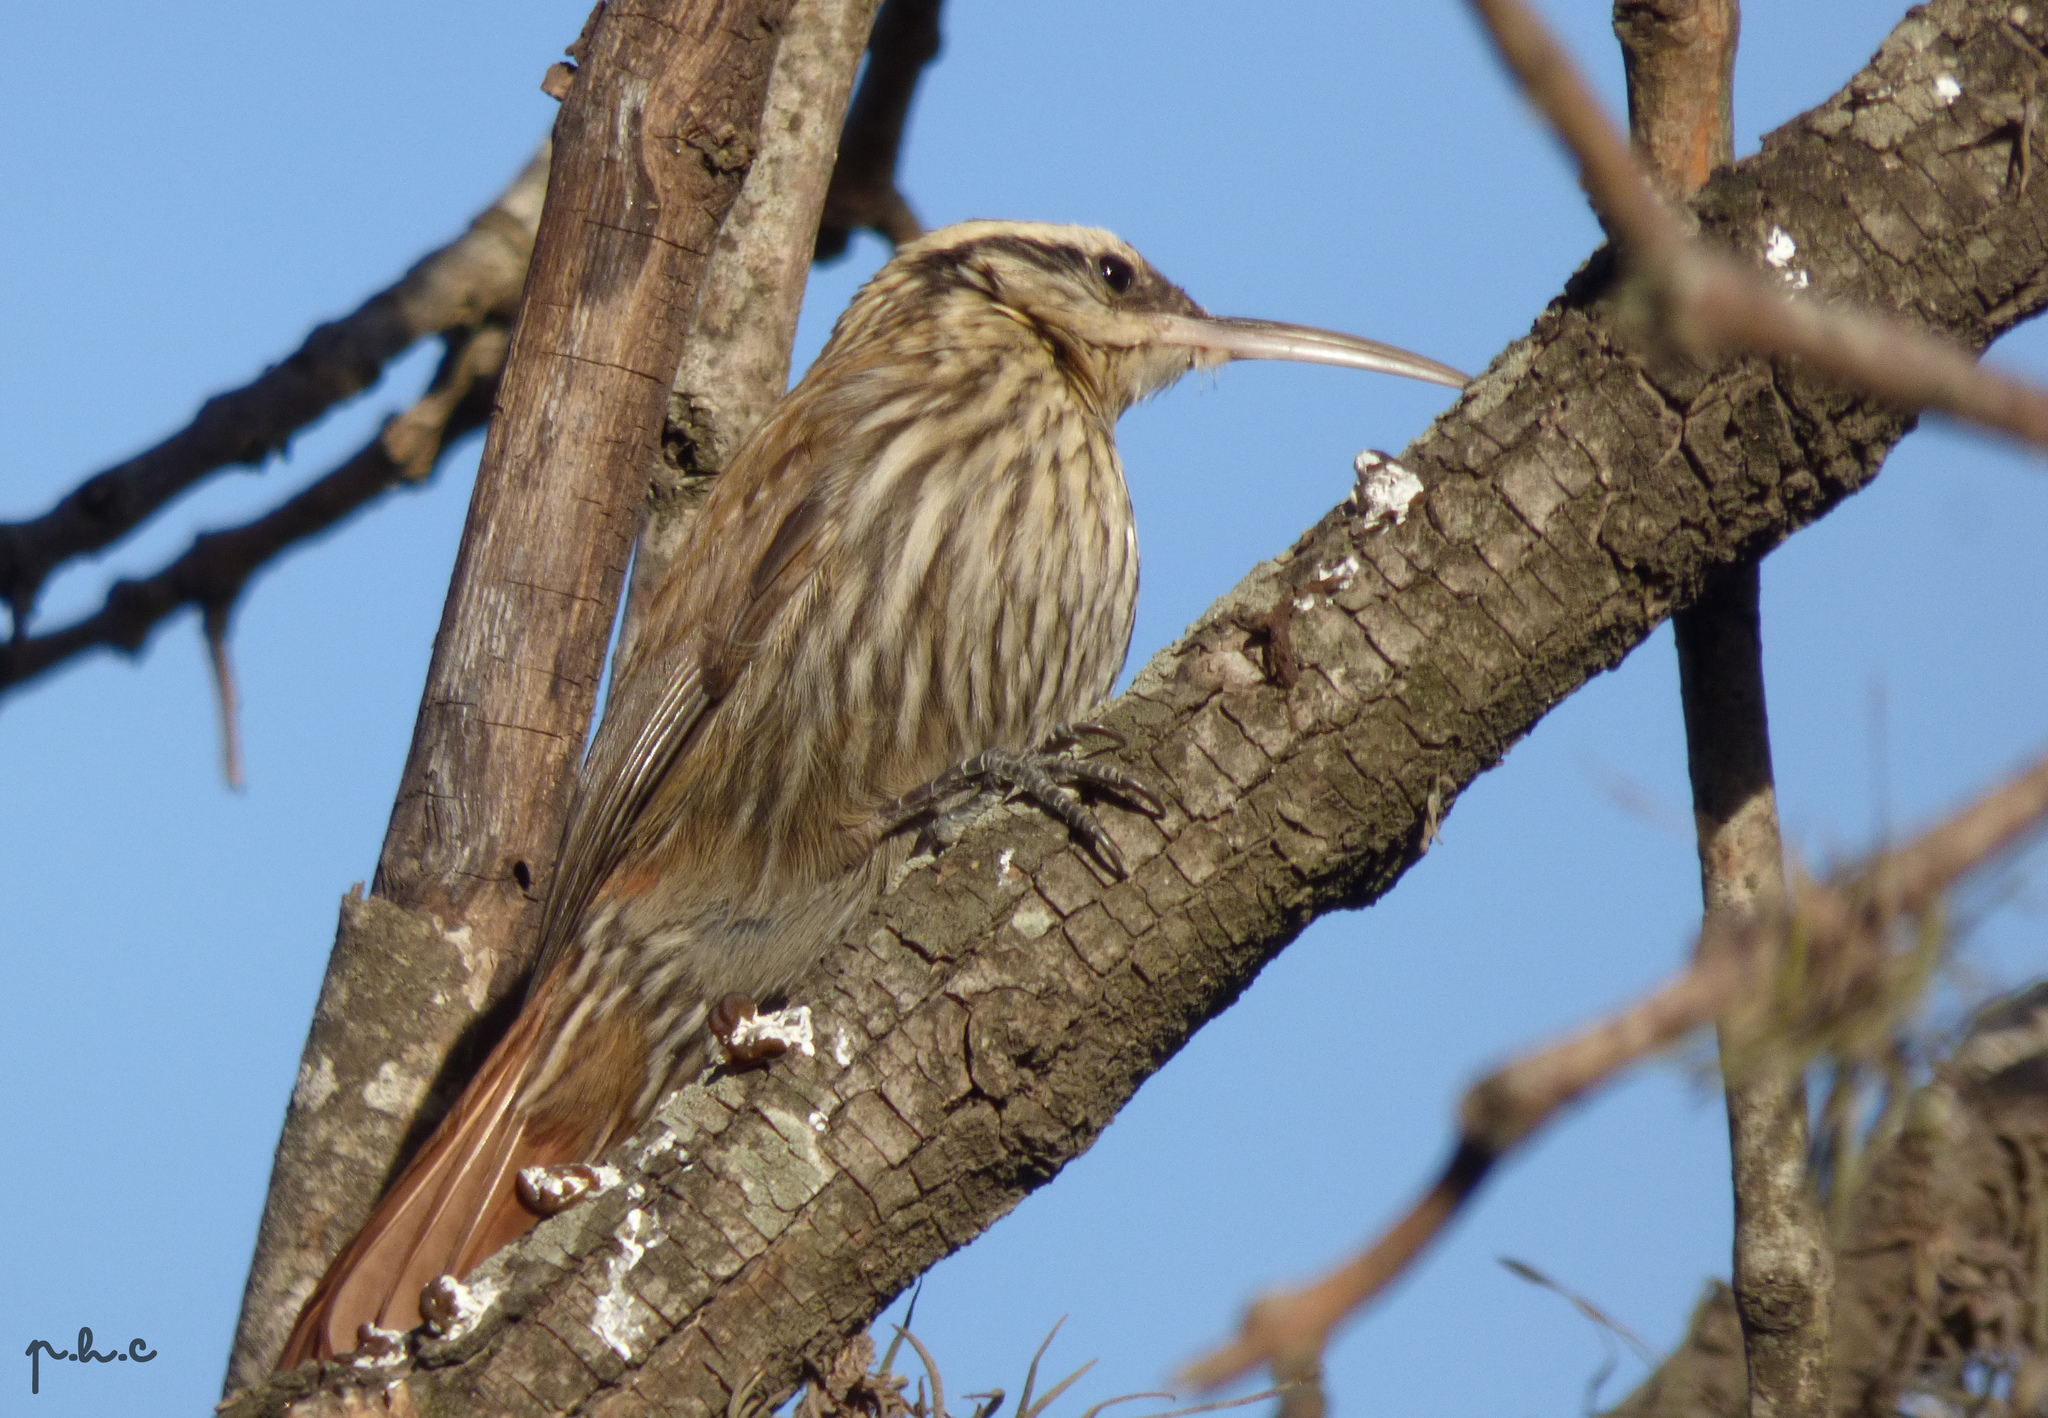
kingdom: Animalia
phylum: Chordata
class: Aves
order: Passeriformes
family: Furnariidae
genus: Lepidocolaptes
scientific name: Lepidocolaptes angustirostris
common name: Narrow-billed woodcreeper
